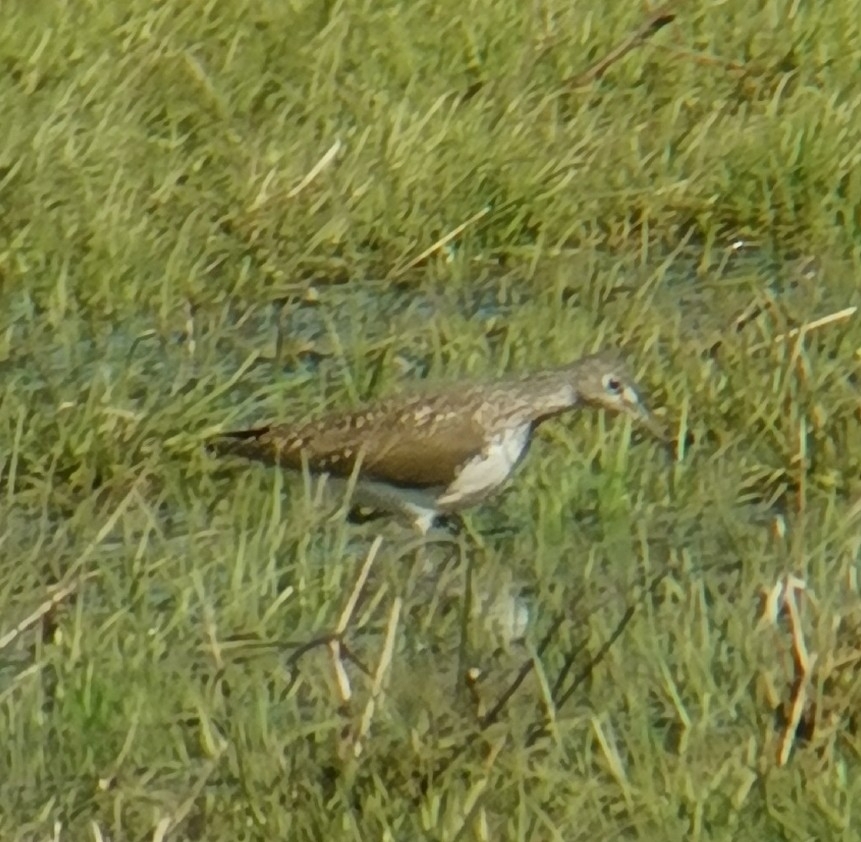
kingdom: Animalia
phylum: Chordata
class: Aves
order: Charadriiformes
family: Scolopacidae
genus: Tringa
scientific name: Tringa ochropus
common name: Green sandpiper
